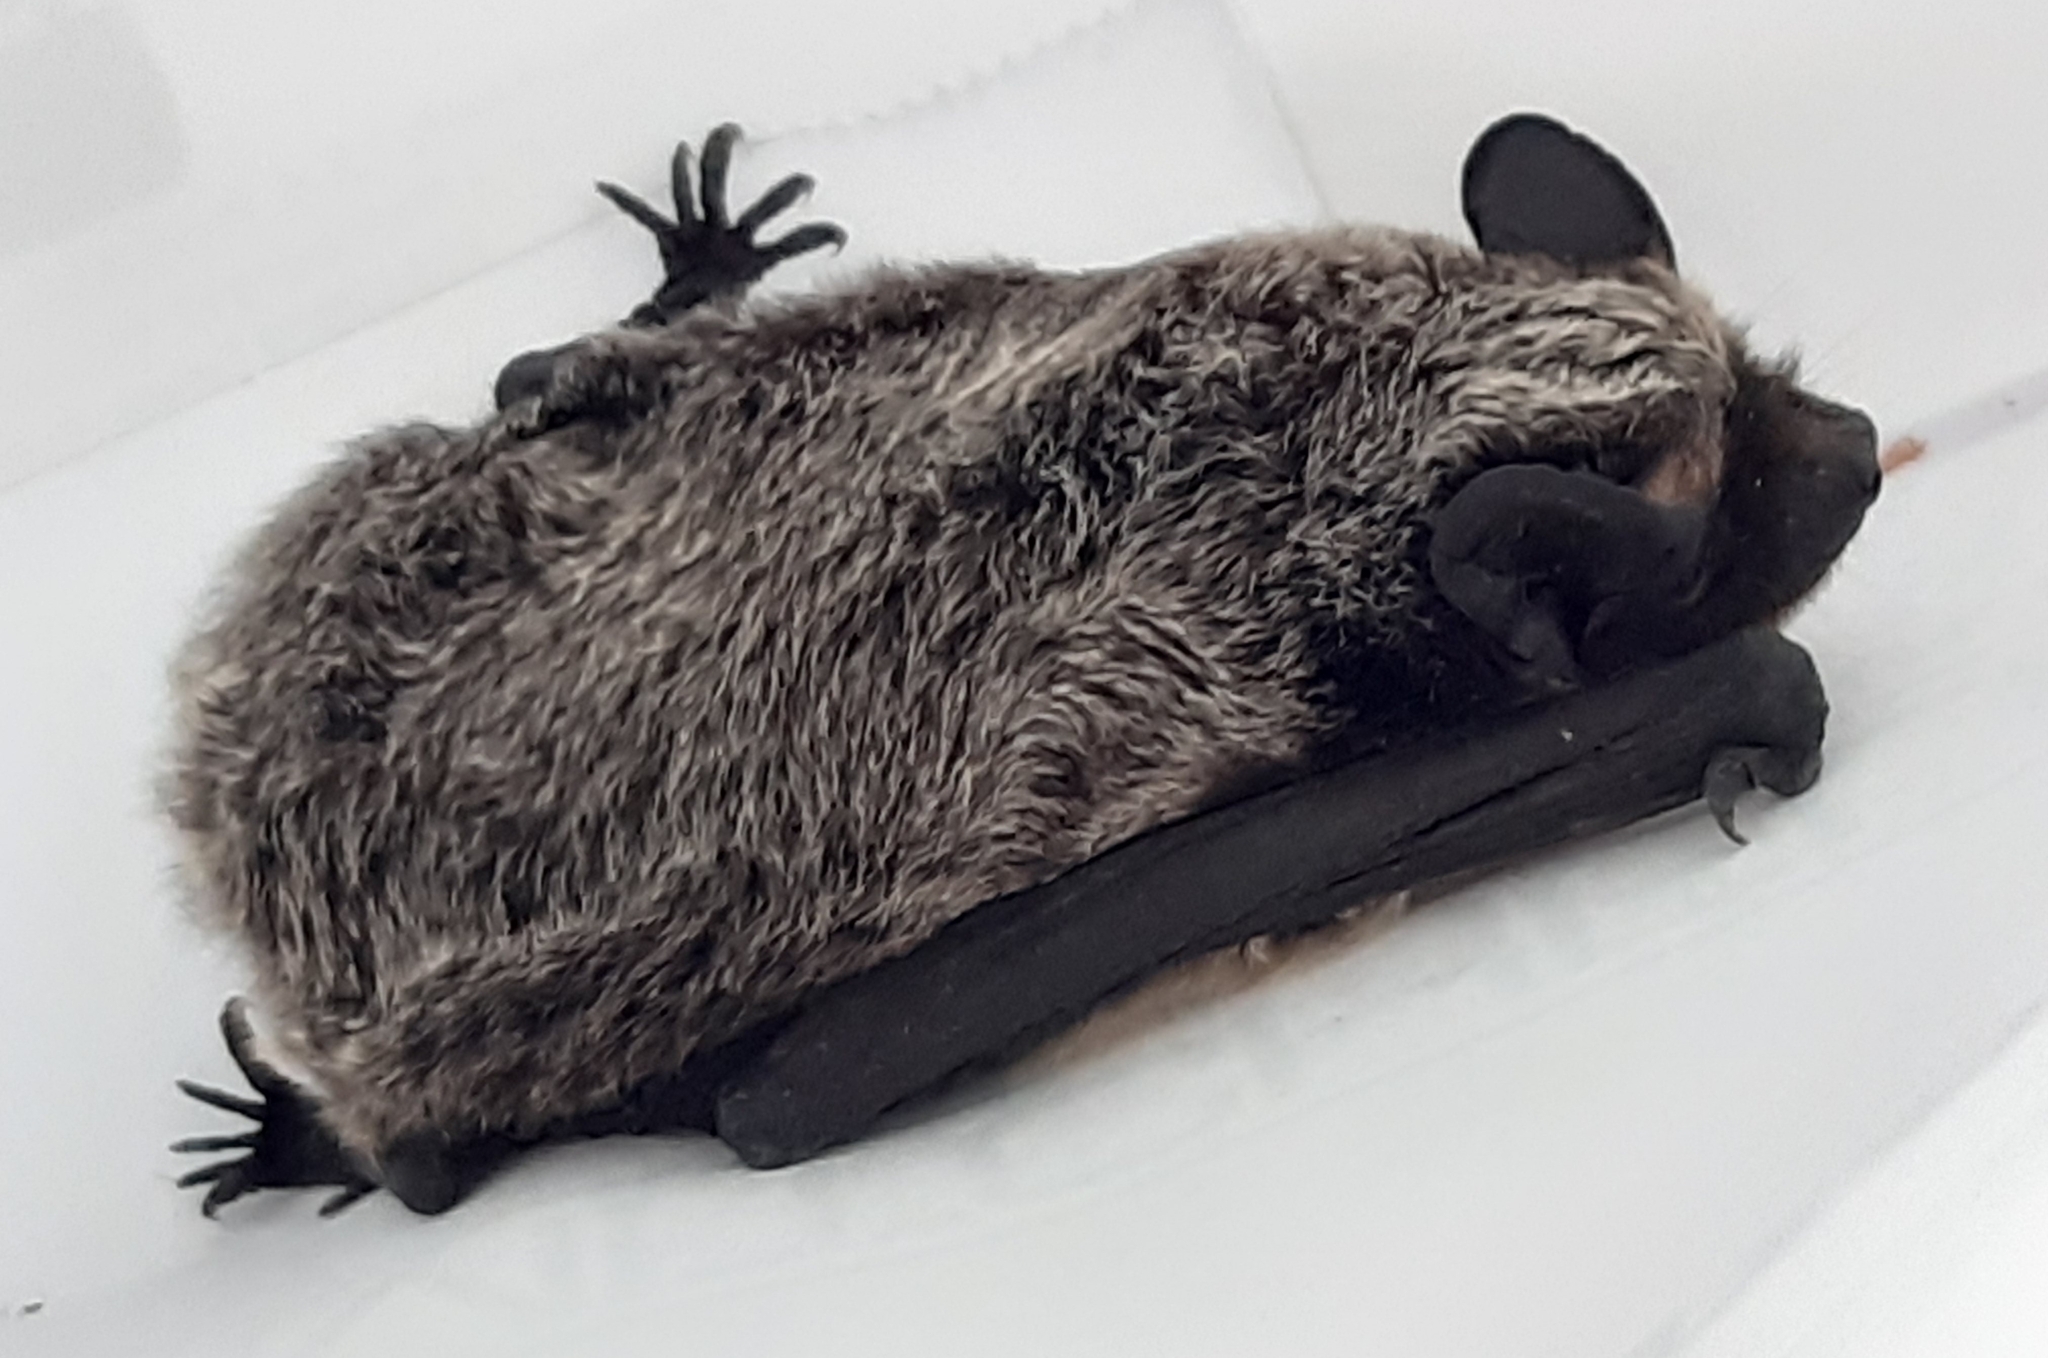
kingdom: Animalia
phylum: Chordata
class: Mammalia
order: Chiroptera
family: Vespertilionidae
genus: Vespertilio
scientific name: Vespertilio murinus
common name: Particolored bat
